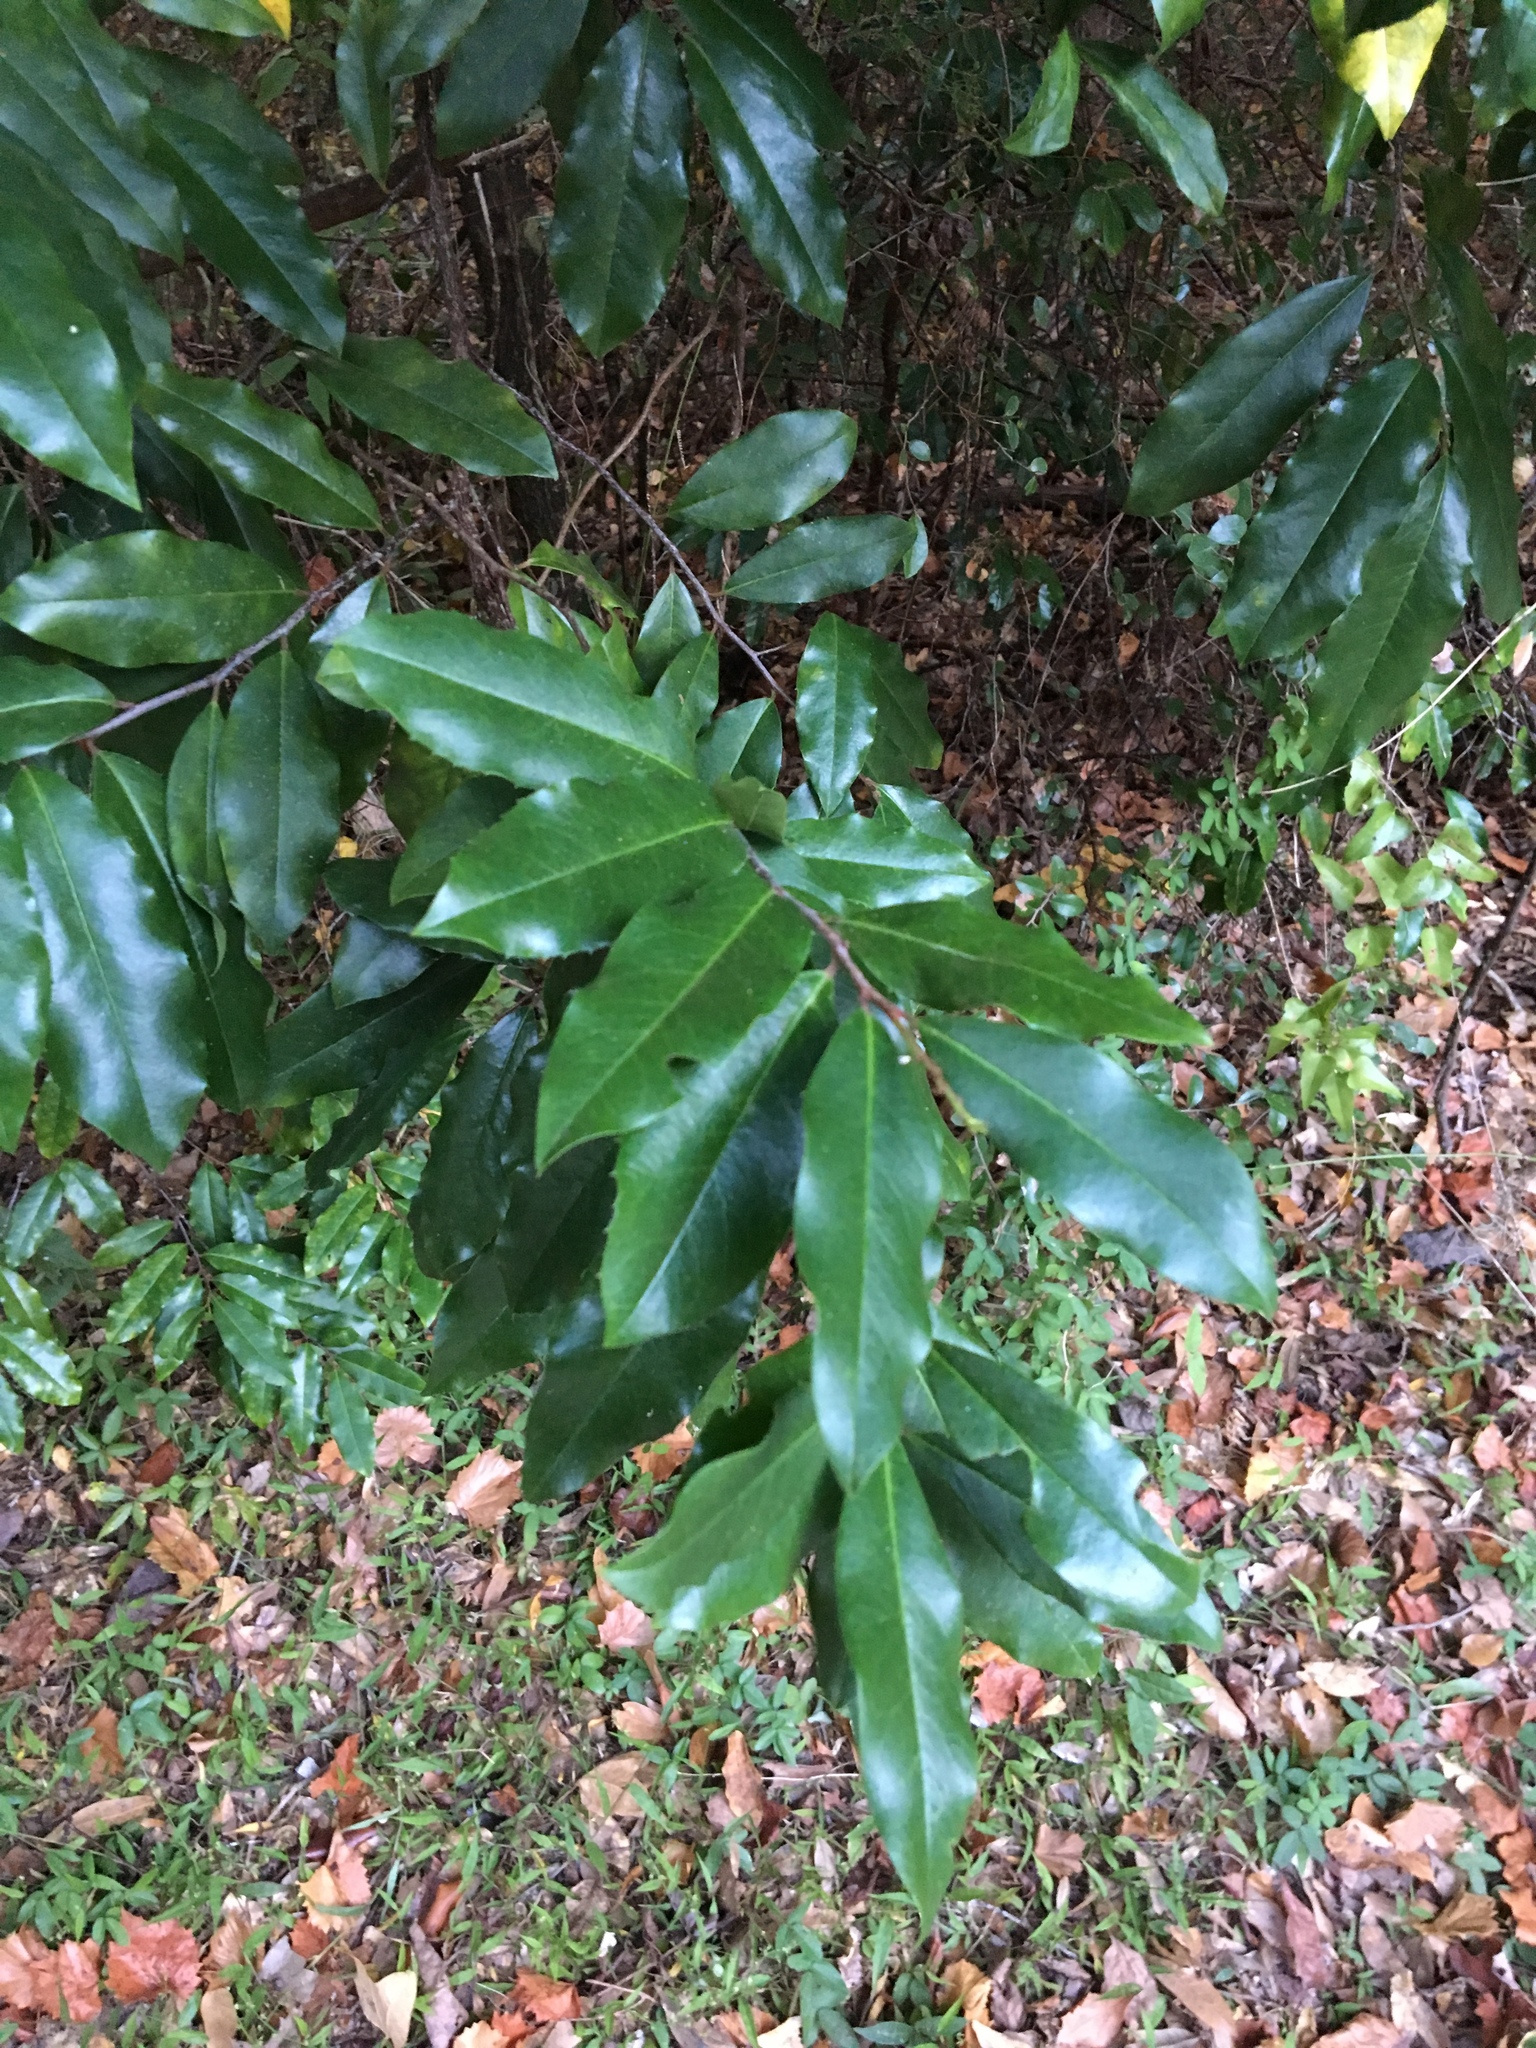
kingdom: Plantae
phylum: Tracheophyta
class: Magnoliopsida
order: Rosales
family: Rosaceae
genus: Prunus
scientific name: Prunus caroliniana
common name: Carolina laurel cherry
